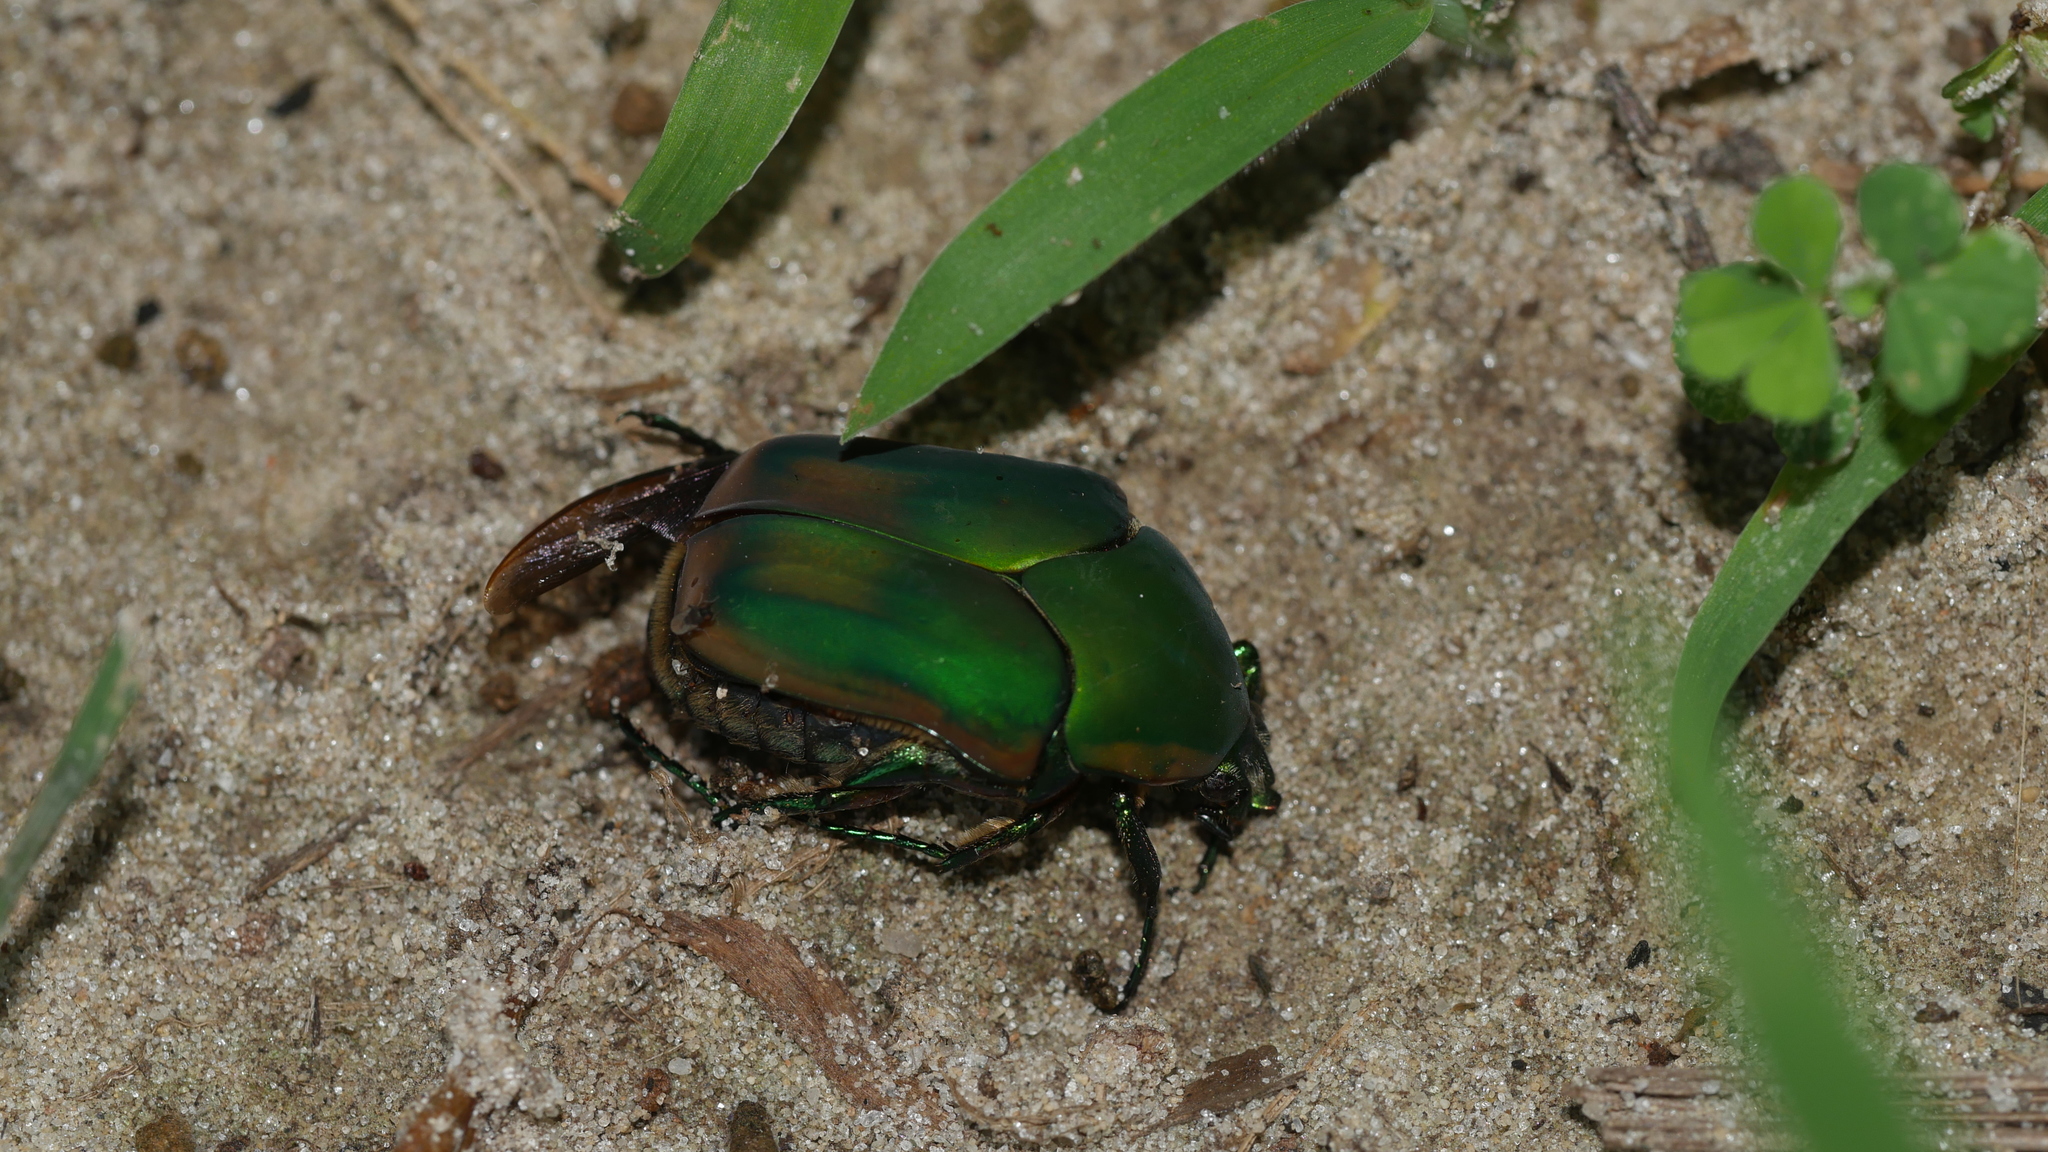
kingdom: Animalia
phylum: Arthropoda
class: Insecta
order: Coleoptera
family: Scarabaeidae
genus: Cotinis
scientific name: Cotinis nitida
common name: Common green june beetle
